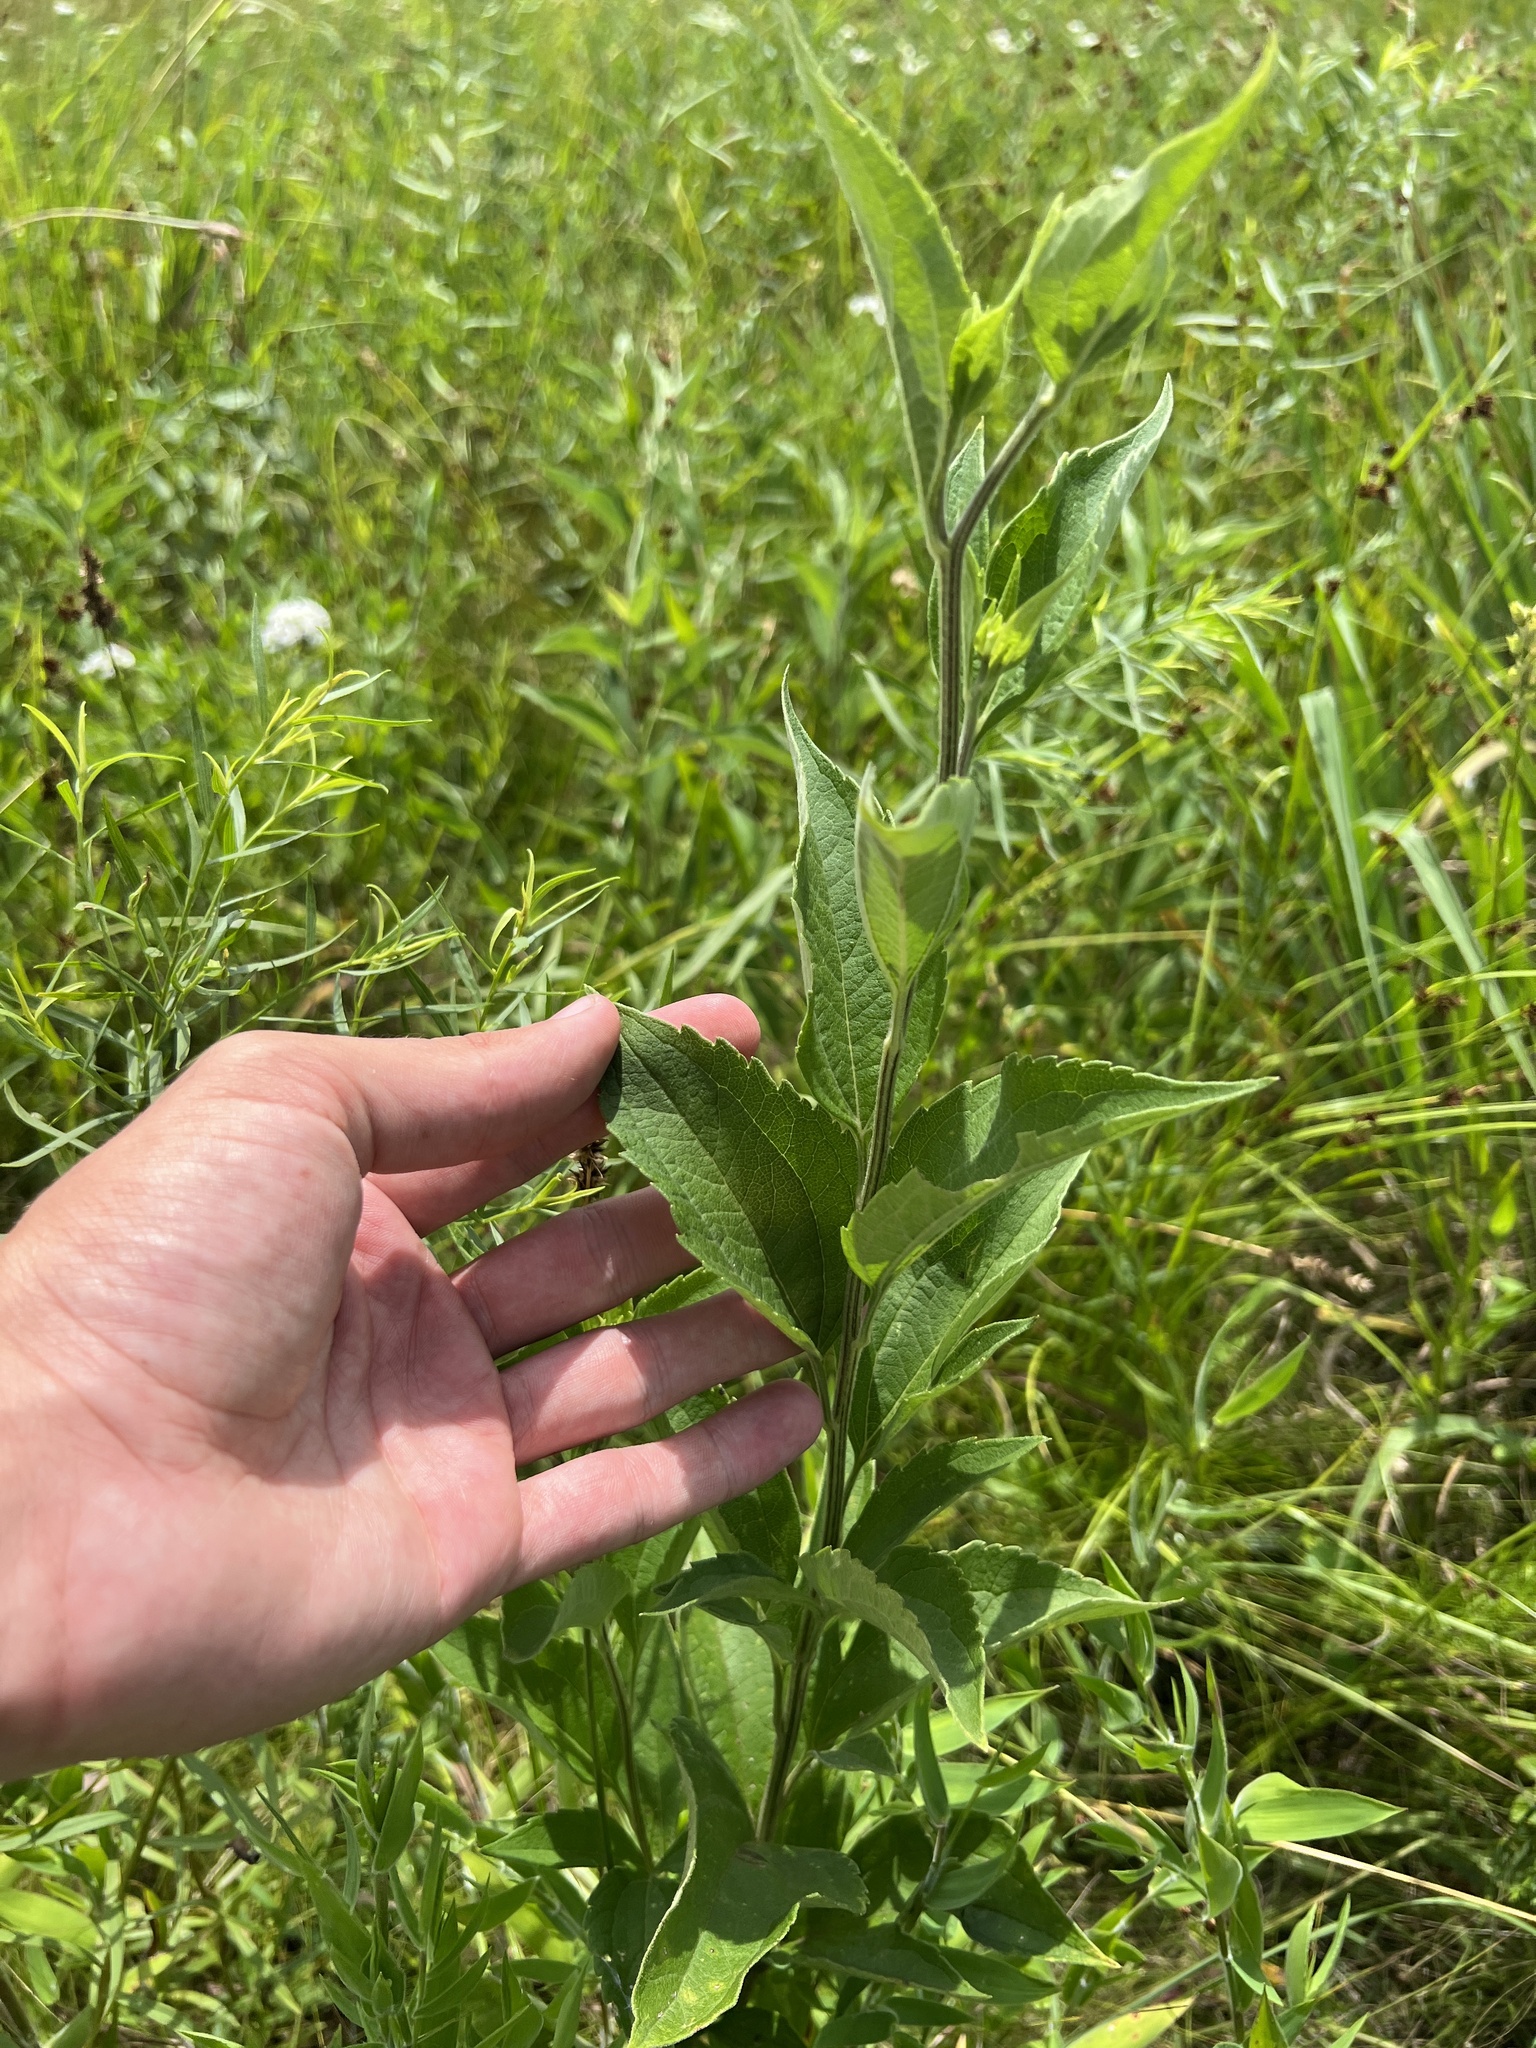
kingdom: Plantae
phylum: Tracheophyta
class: Magnoliopsida
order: Asterales
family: Asteraceae
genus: Rudbeckia
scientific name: Rudbeckia subtomentosa
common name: Sweet coneflower
